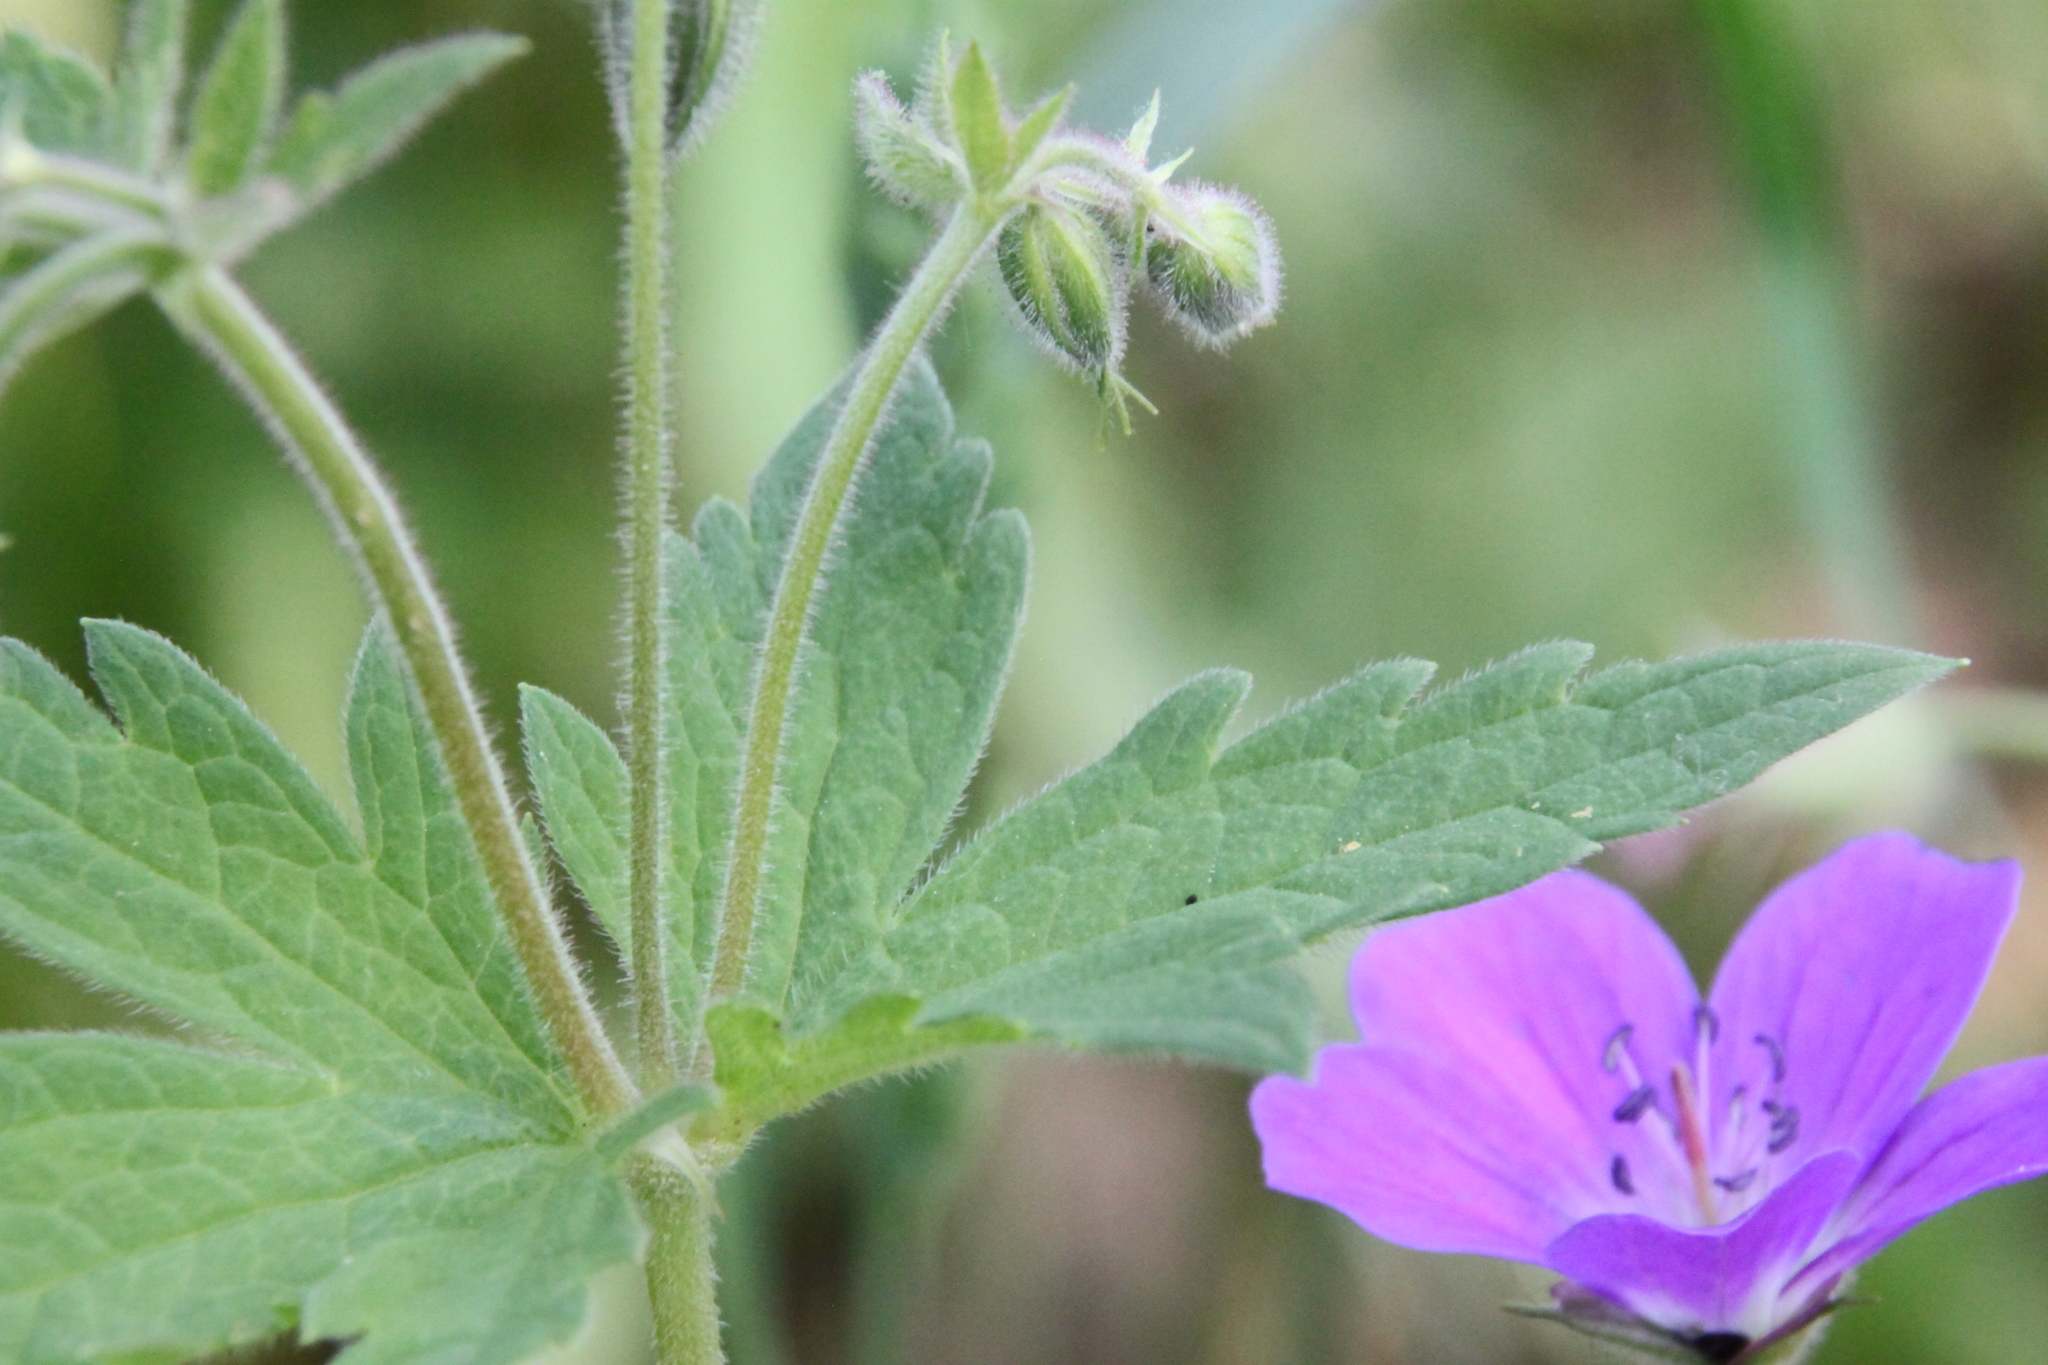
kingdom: Plantae
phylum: Tracheophyta
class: Magnoliopsida
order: Geraniales
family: Geraniaceae
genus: Geranium
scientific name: Geranium sylvaticum
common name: Wood crane's-bill
